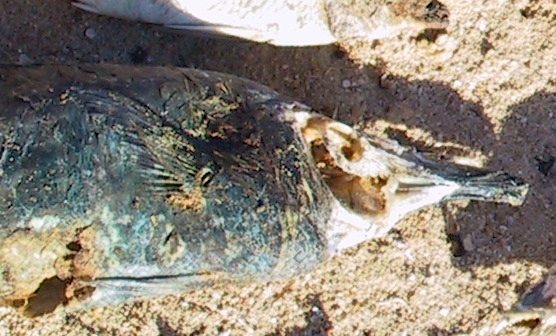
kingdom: Animalia
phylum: Chordata
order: Perciformes
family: Labridae
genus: Gomphosus
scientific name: Gomphosus klunzingeri
